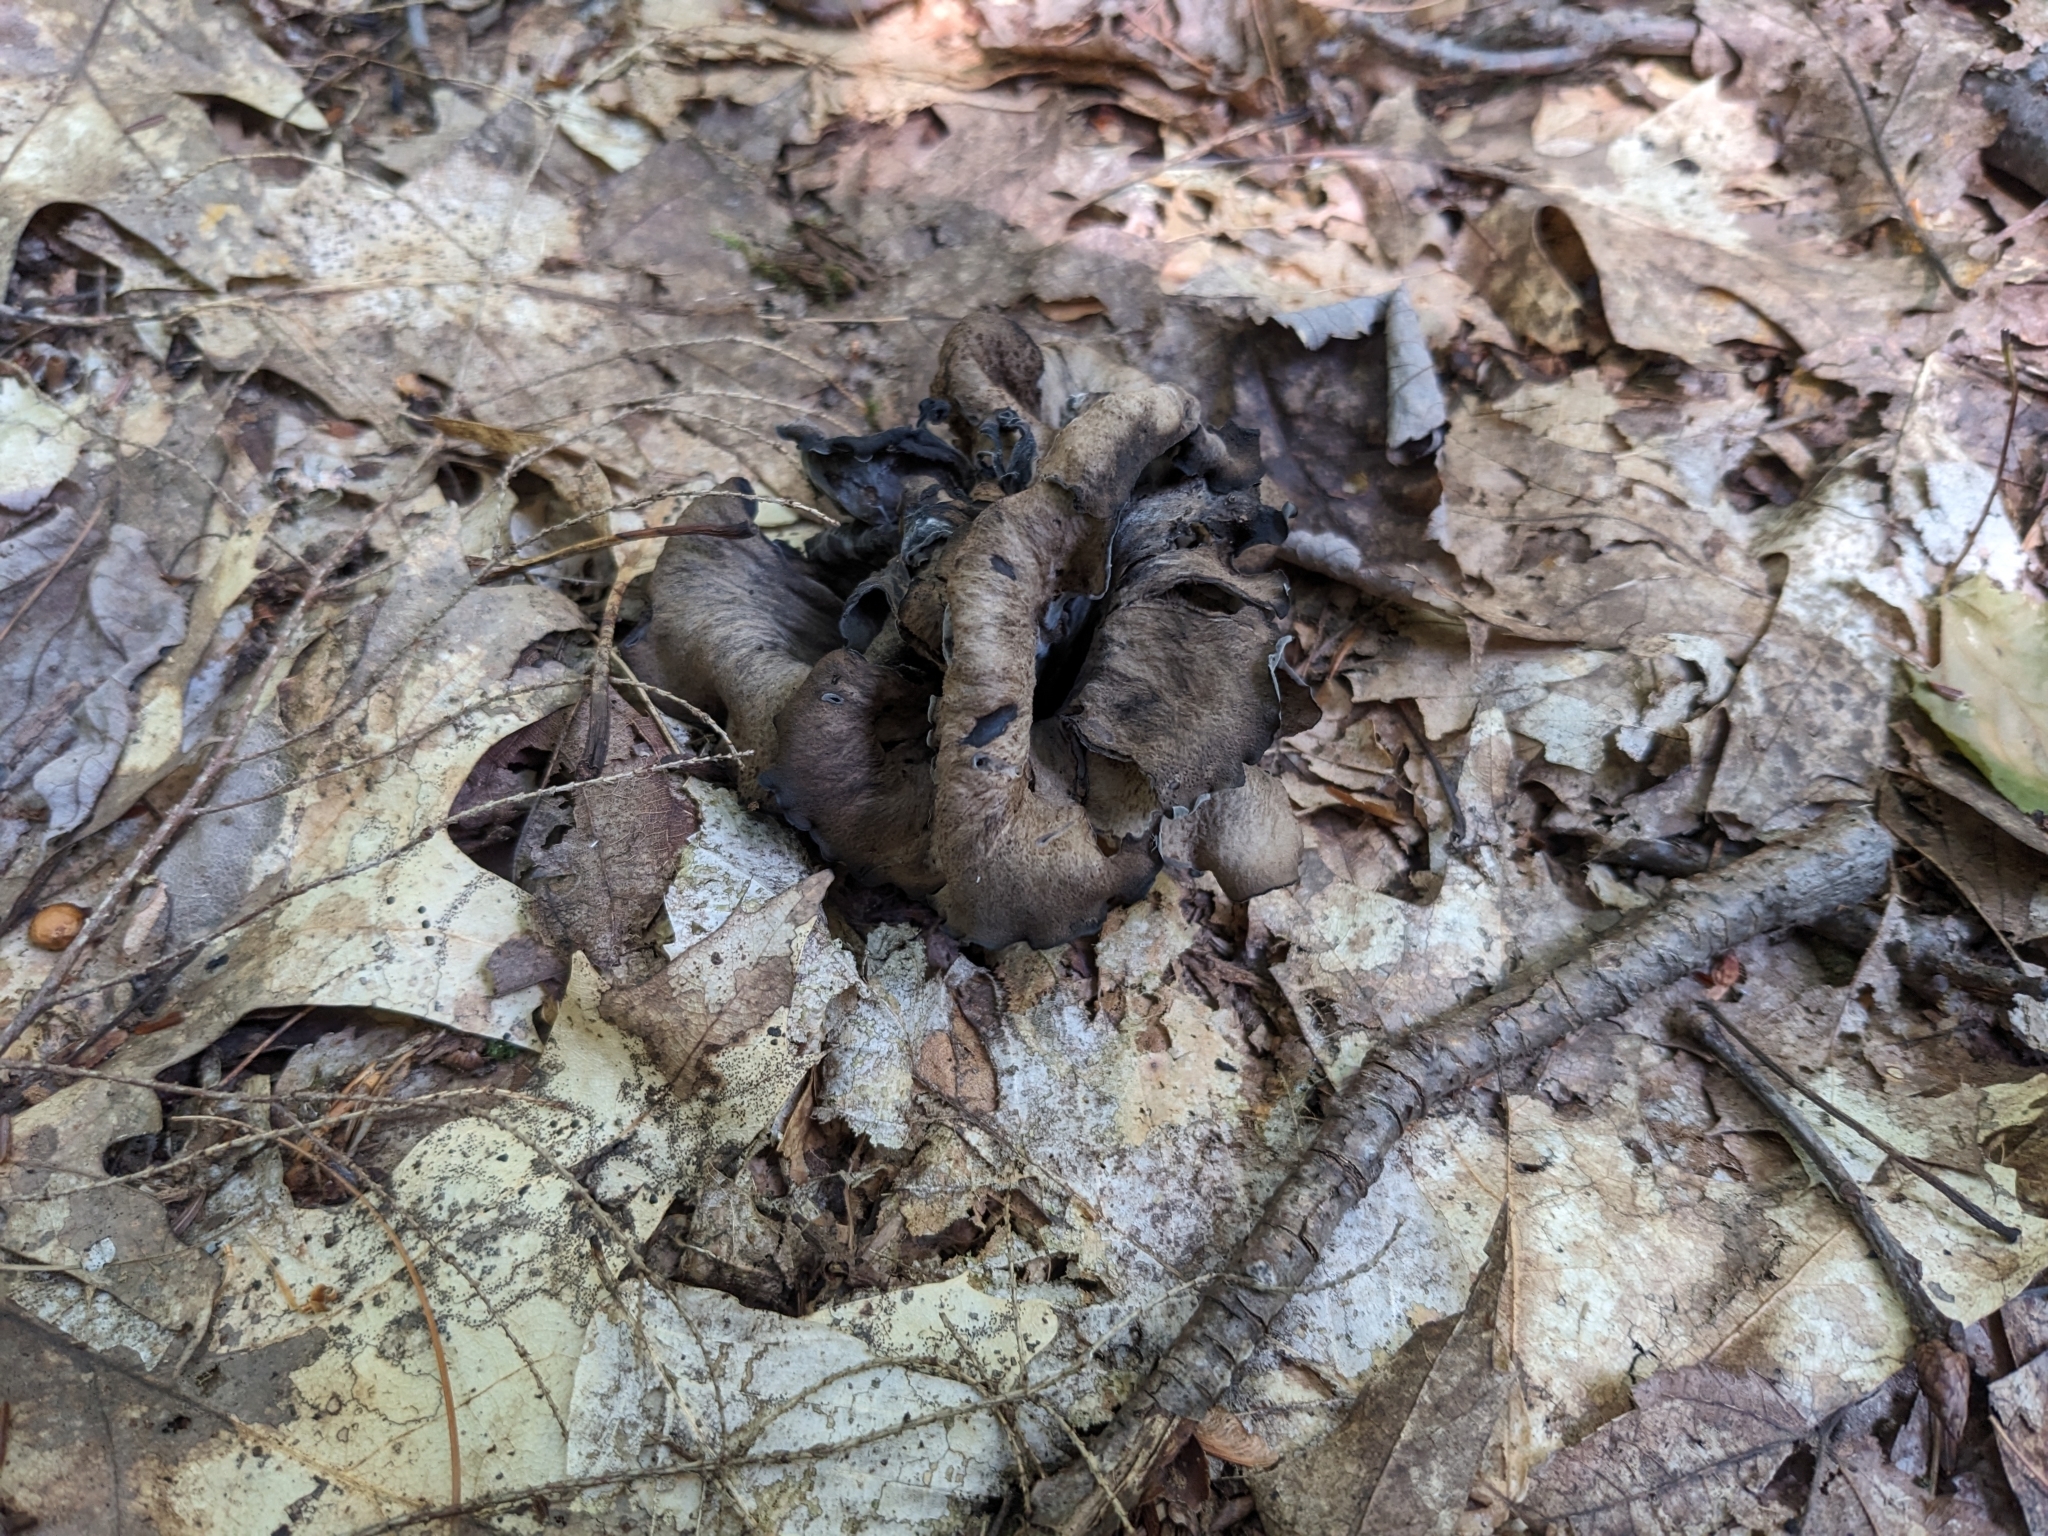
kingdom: Fungi
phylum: Basidiomycota
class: Agaricomycetes
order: Cantharellales
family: Hydnaceae
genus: Craterellus
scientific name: Craterellus cornucopioides
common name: Horn of plenty
